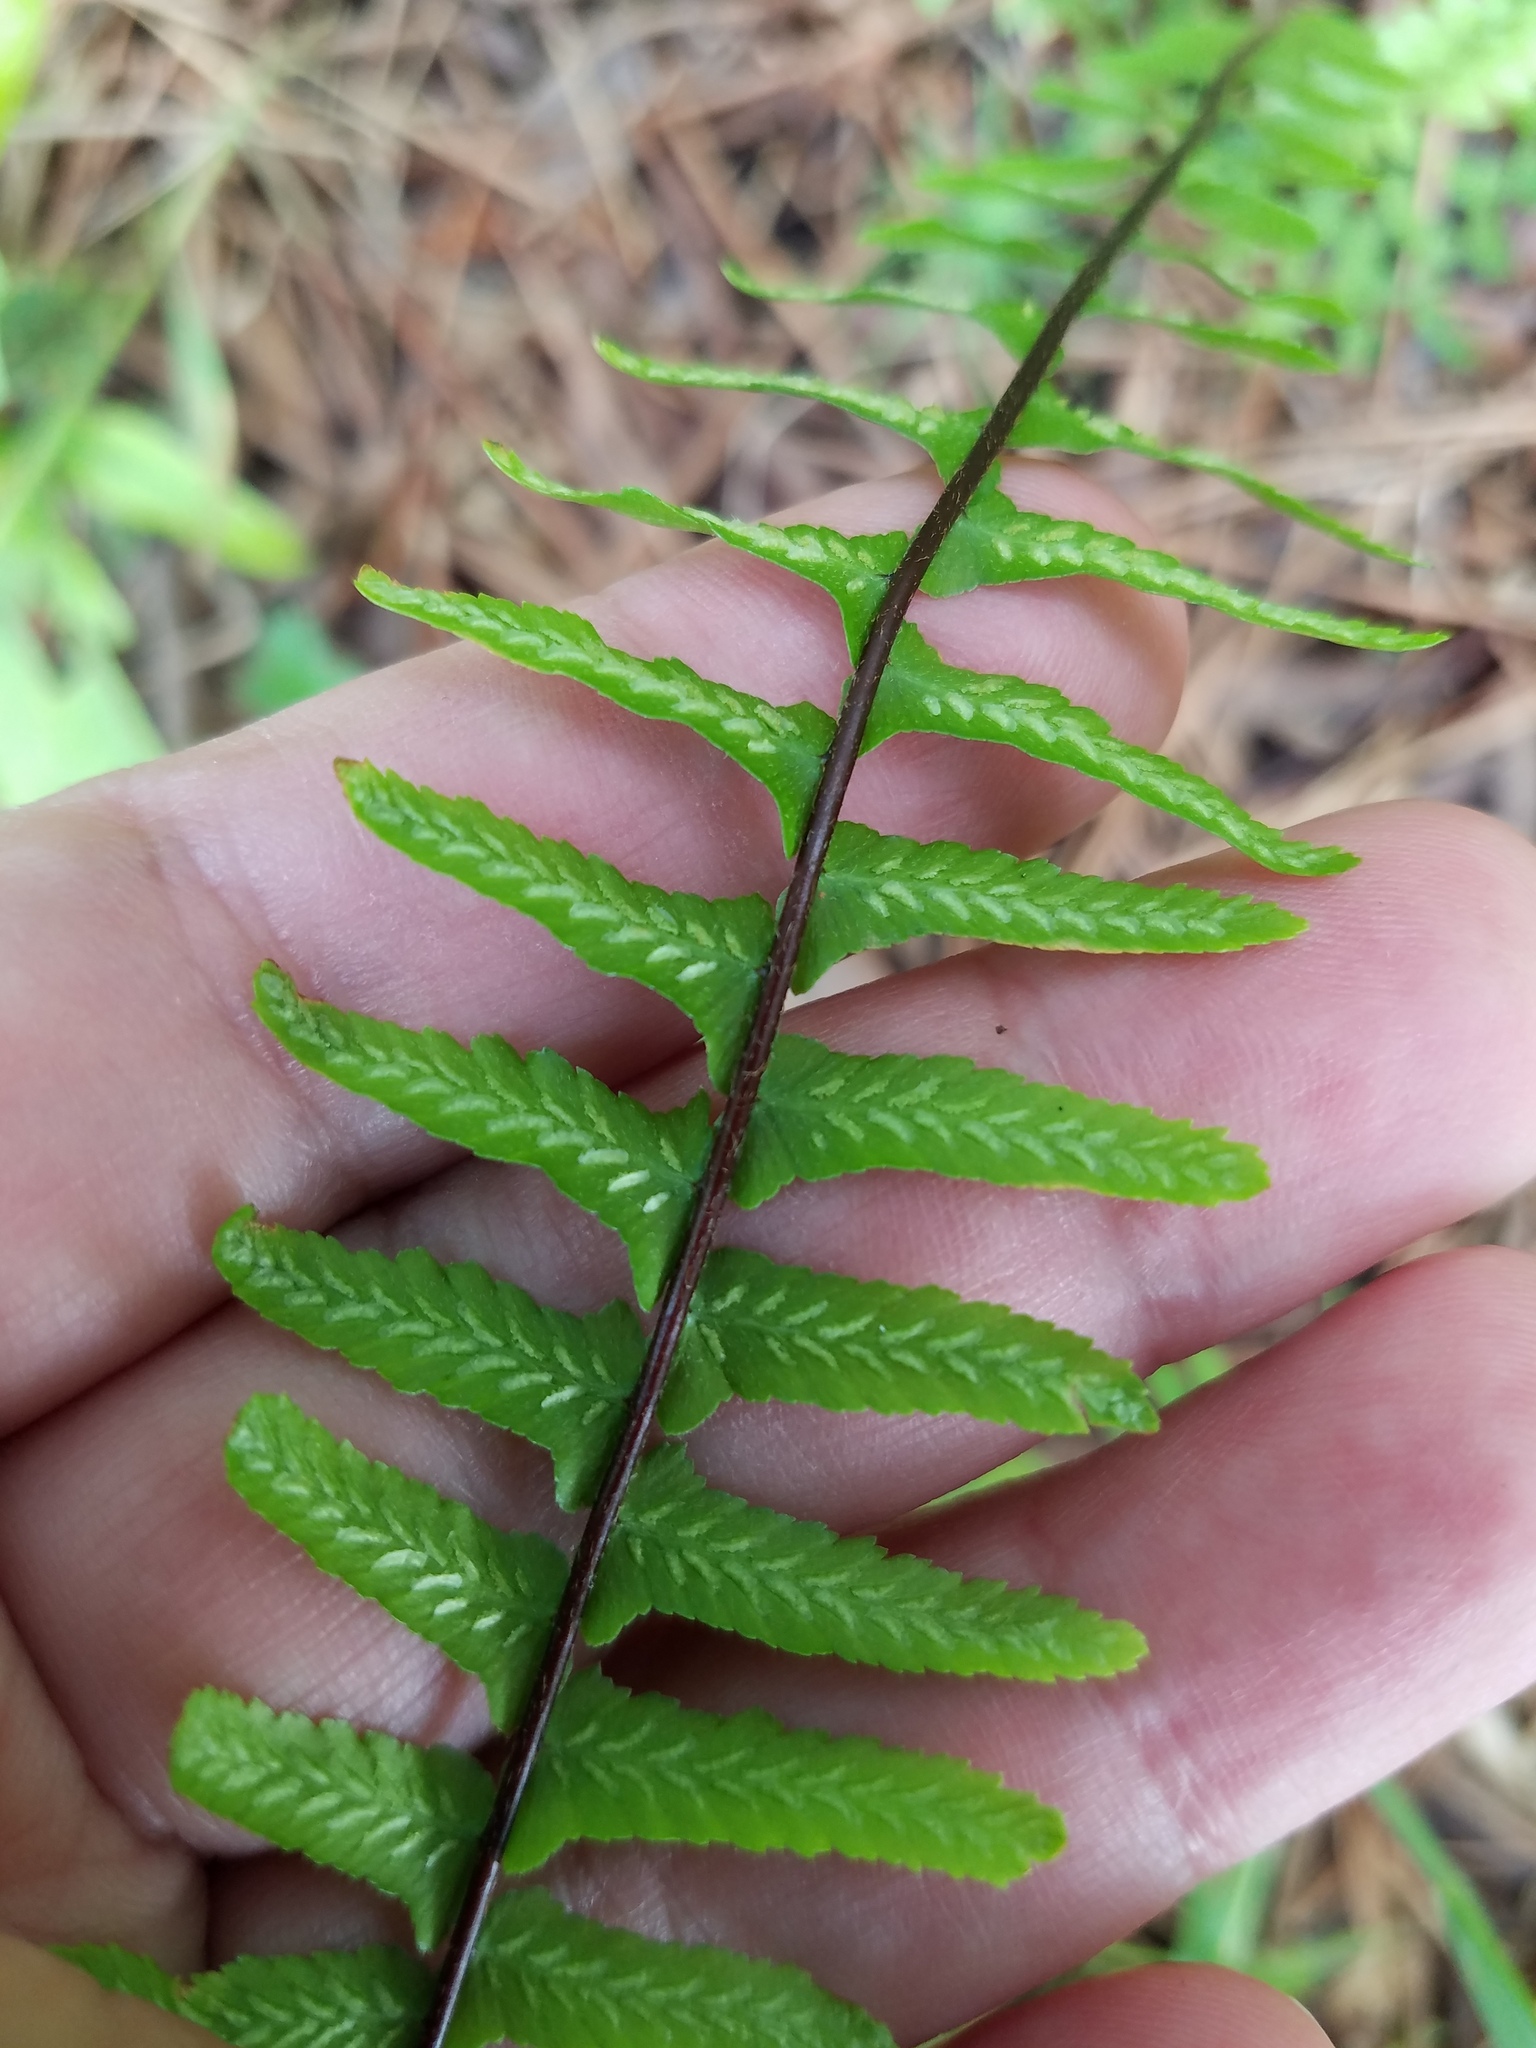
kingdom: Plantae
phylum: Tracheophyta
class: Polypodiopsida
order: Polypodiales
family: Aspleniaceae
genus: Asplenium
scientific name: Asplenium platyneuron
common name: Ebony spleenwort
